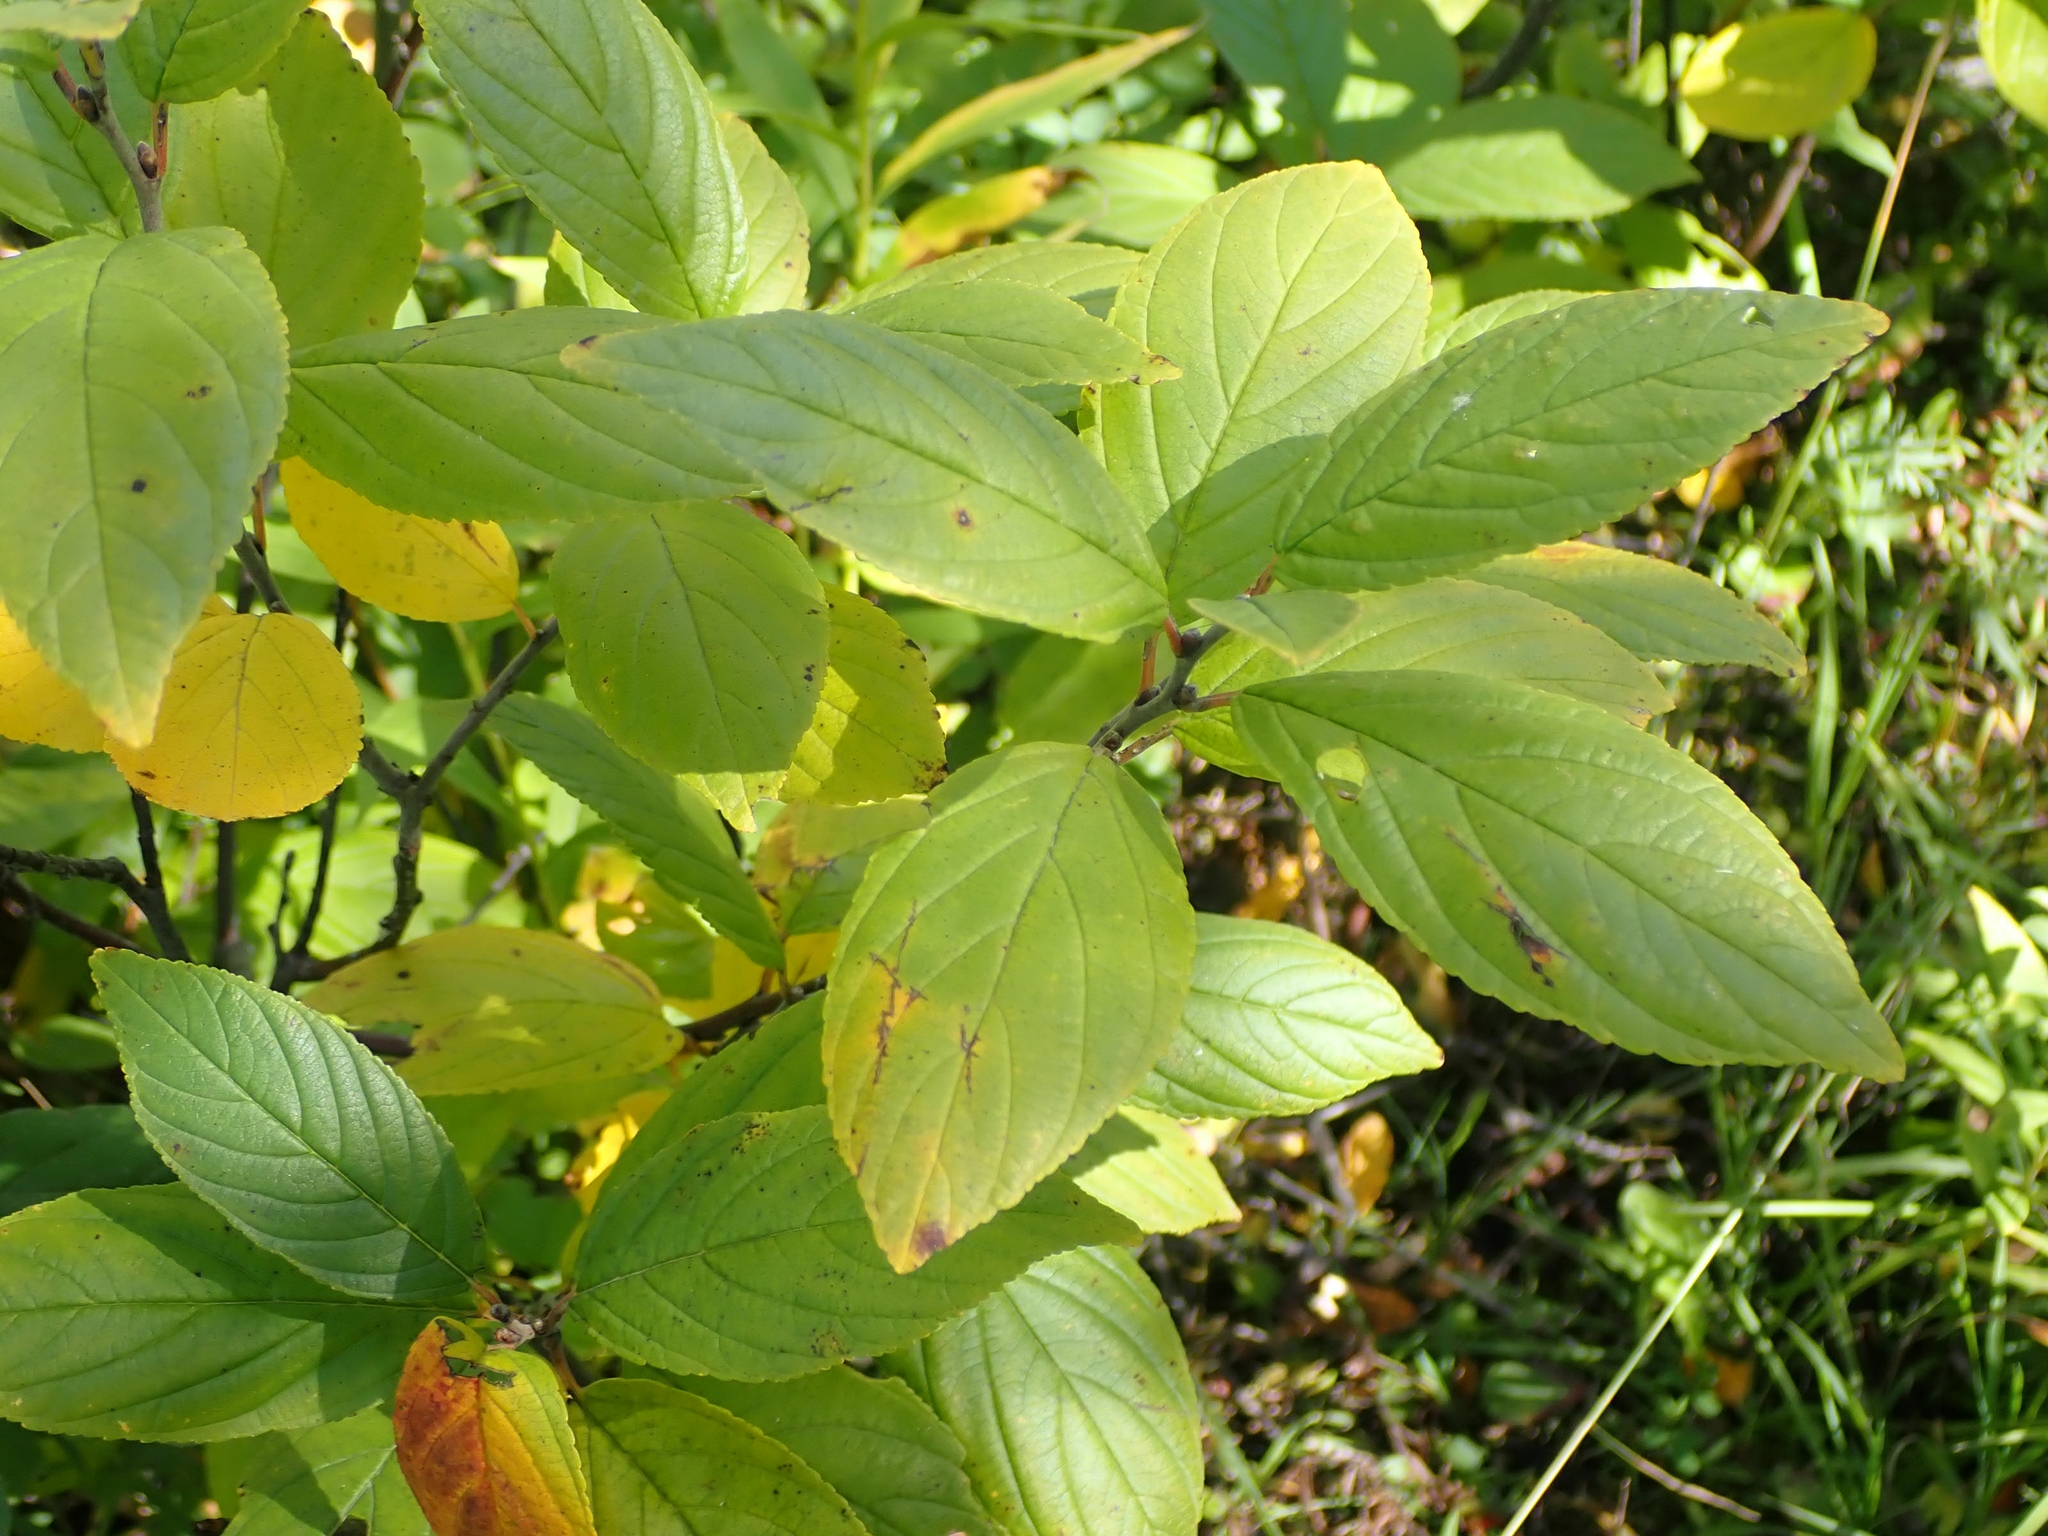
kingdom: Plantae
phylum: Tracheophyta
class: Magnoliopsida
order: Rosales
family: Rhamnaceae
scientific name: Rhamnaceae
